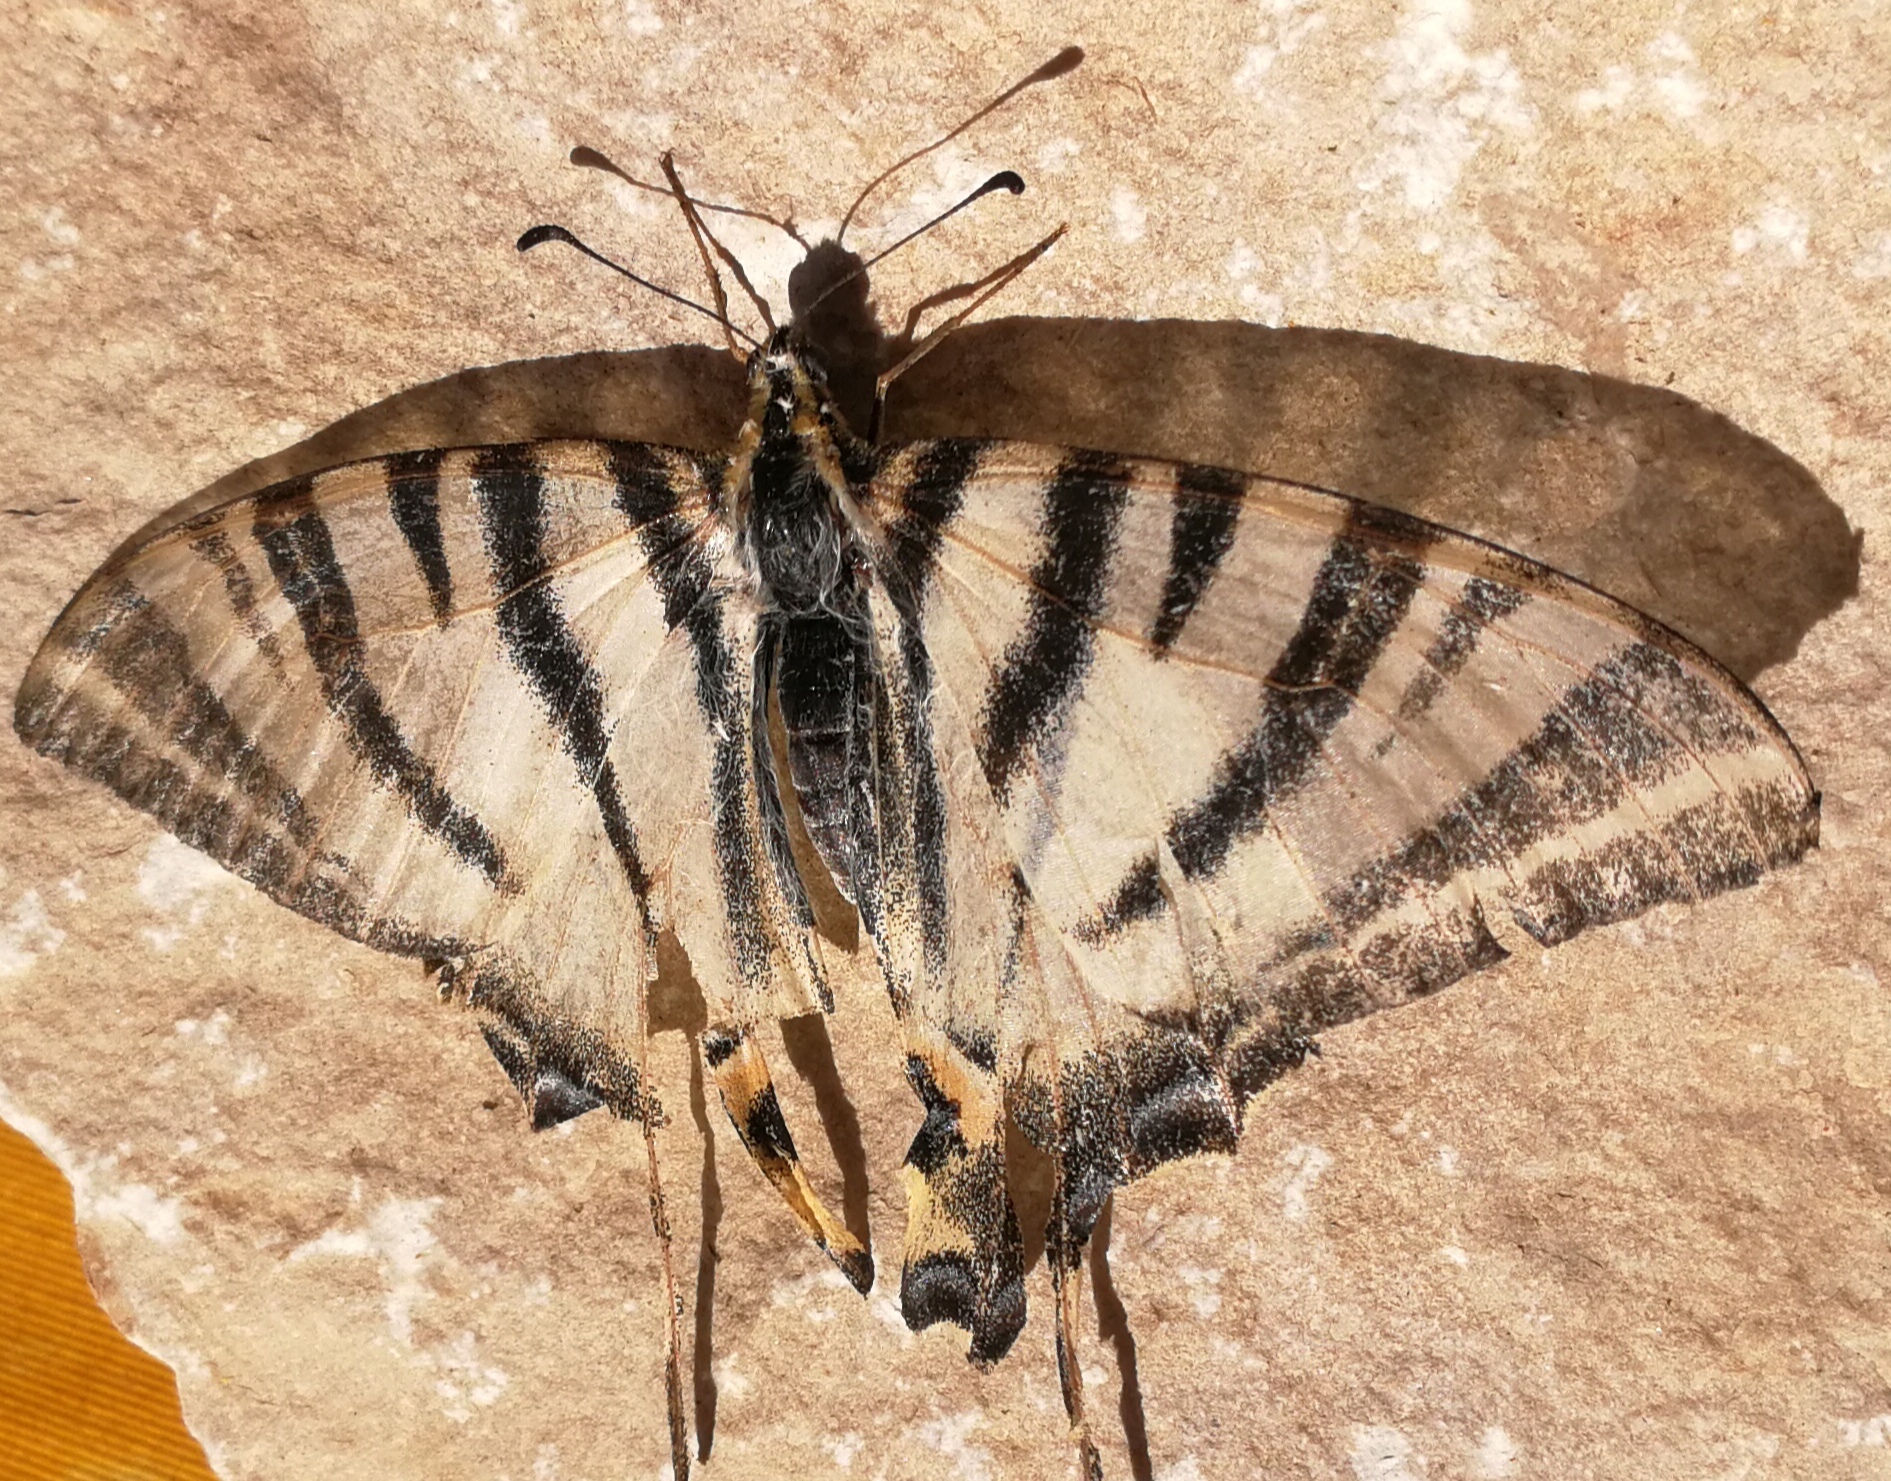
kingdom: Animalia
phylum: Arthropoda
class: Insecta
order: Lepidoptera
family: Papilionidae
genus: Iphiclides
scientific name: Iphiclides podalirius
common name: Scarce swallowtail
